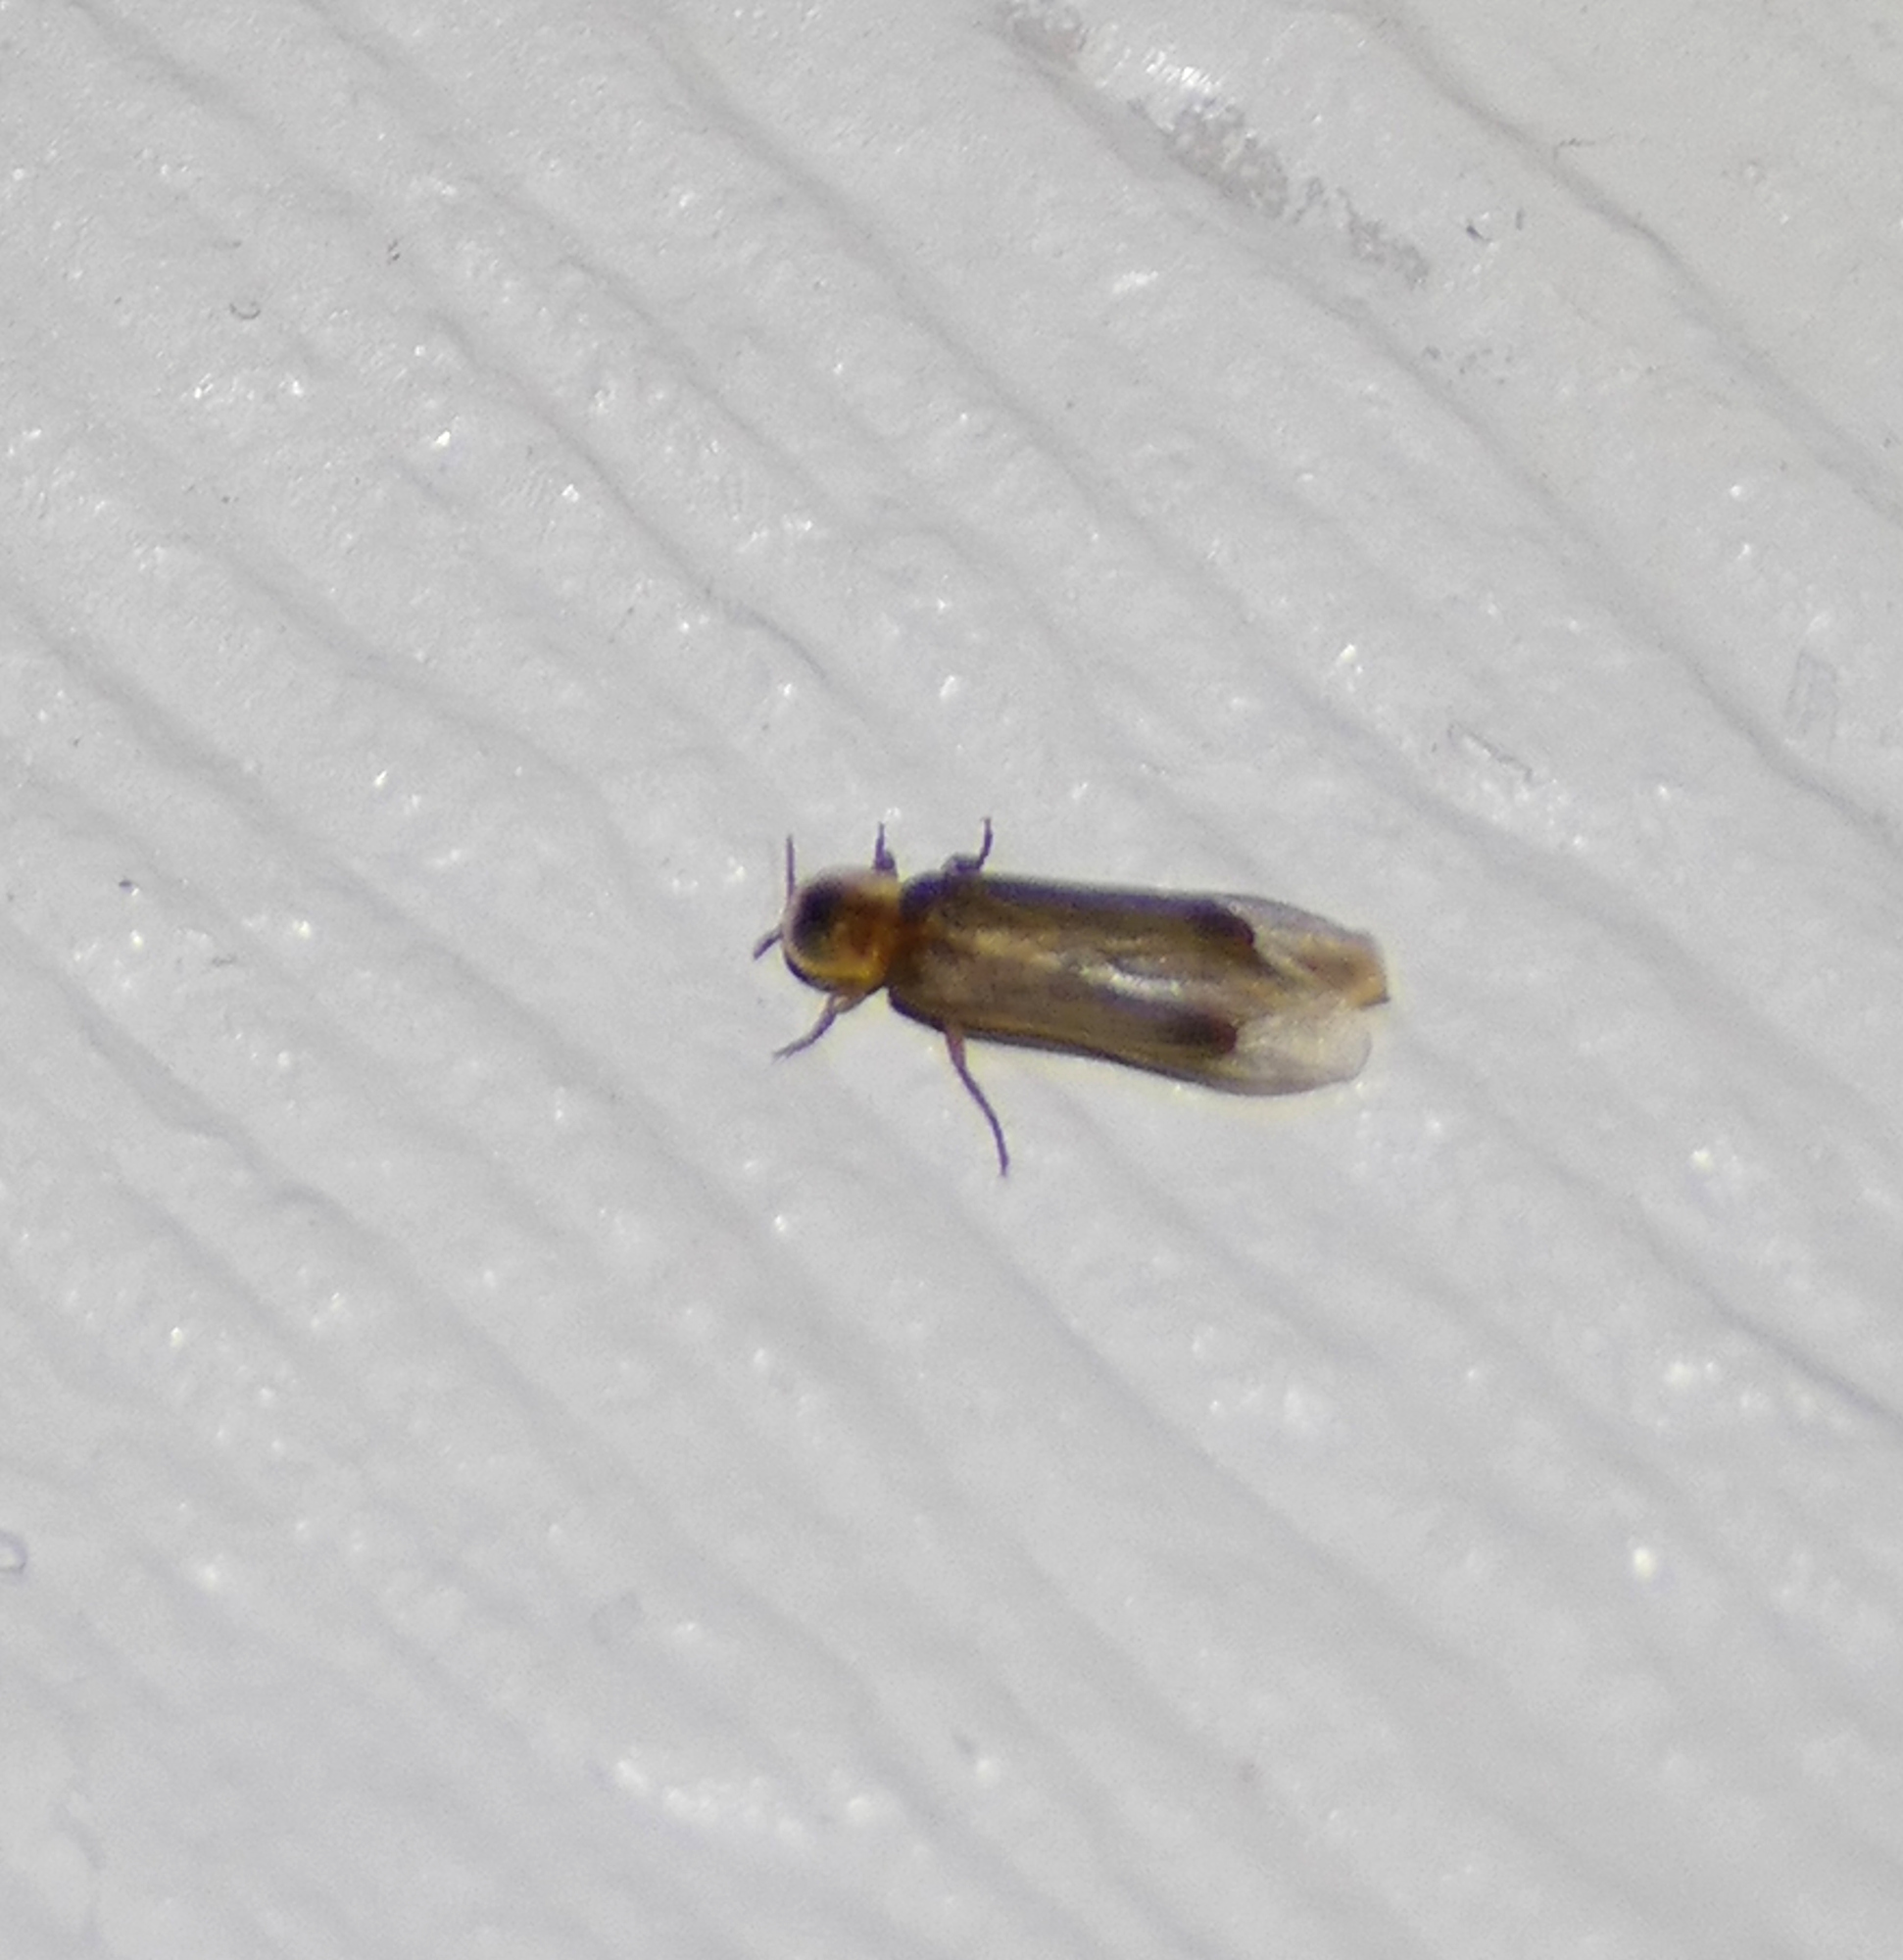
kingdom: Animalia
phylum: Arthropoda
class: Insecta
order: Coleoptera
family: Lampyridae
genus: Microphotus
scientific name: Microphotus octarthrus
